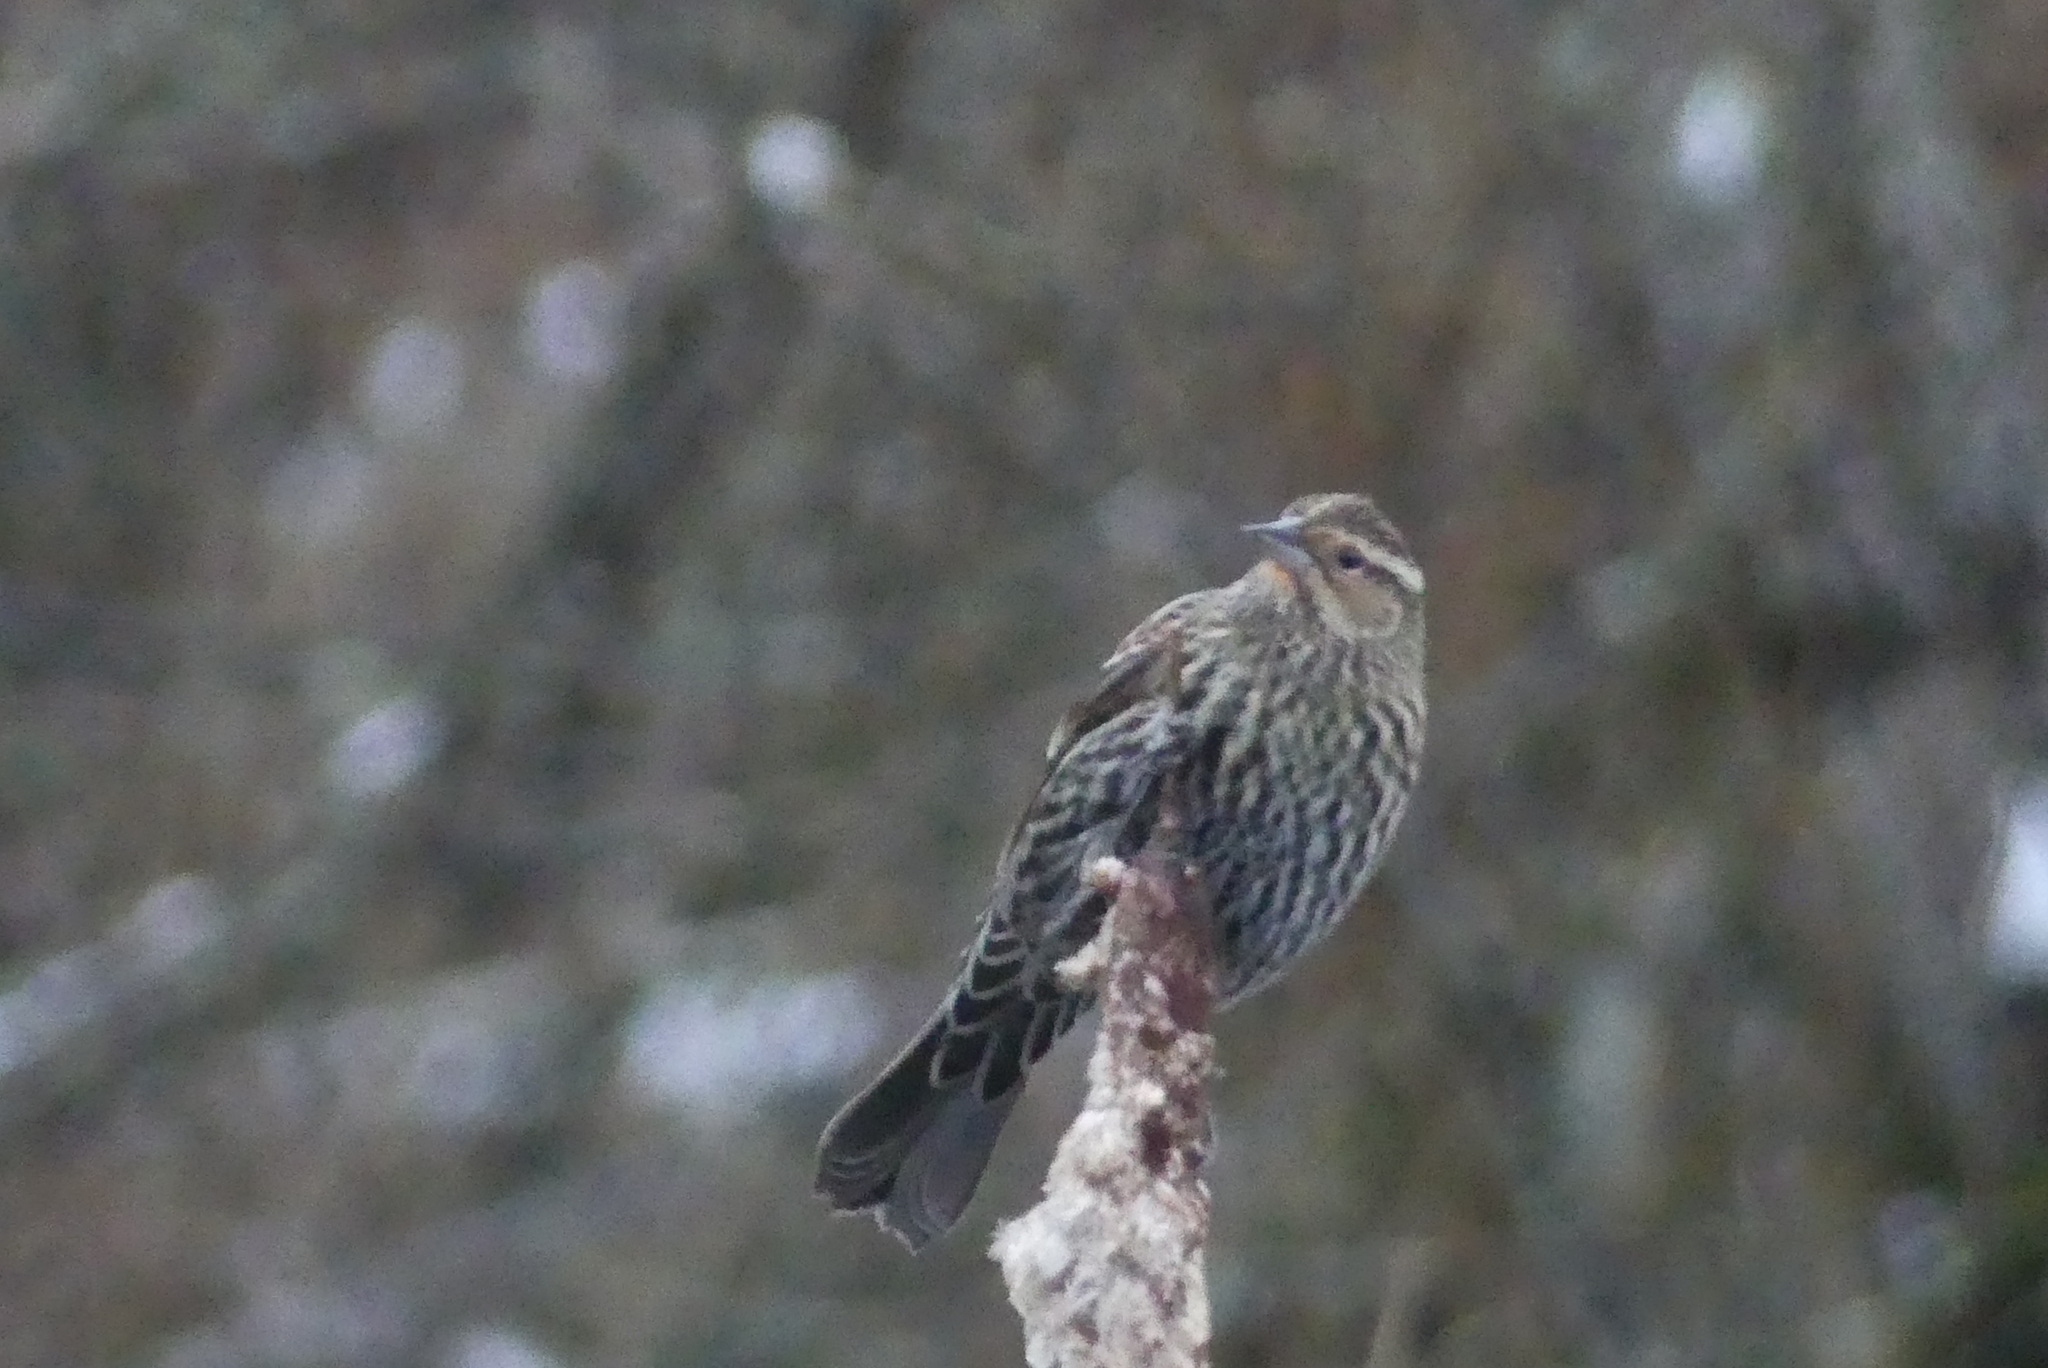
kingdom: Animalia
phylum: Chordata
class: Aves
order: Passeriformes
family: Icteridae
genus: Agelaius
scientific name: Agelaius phoeniceus
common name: Red-winged blackbird
